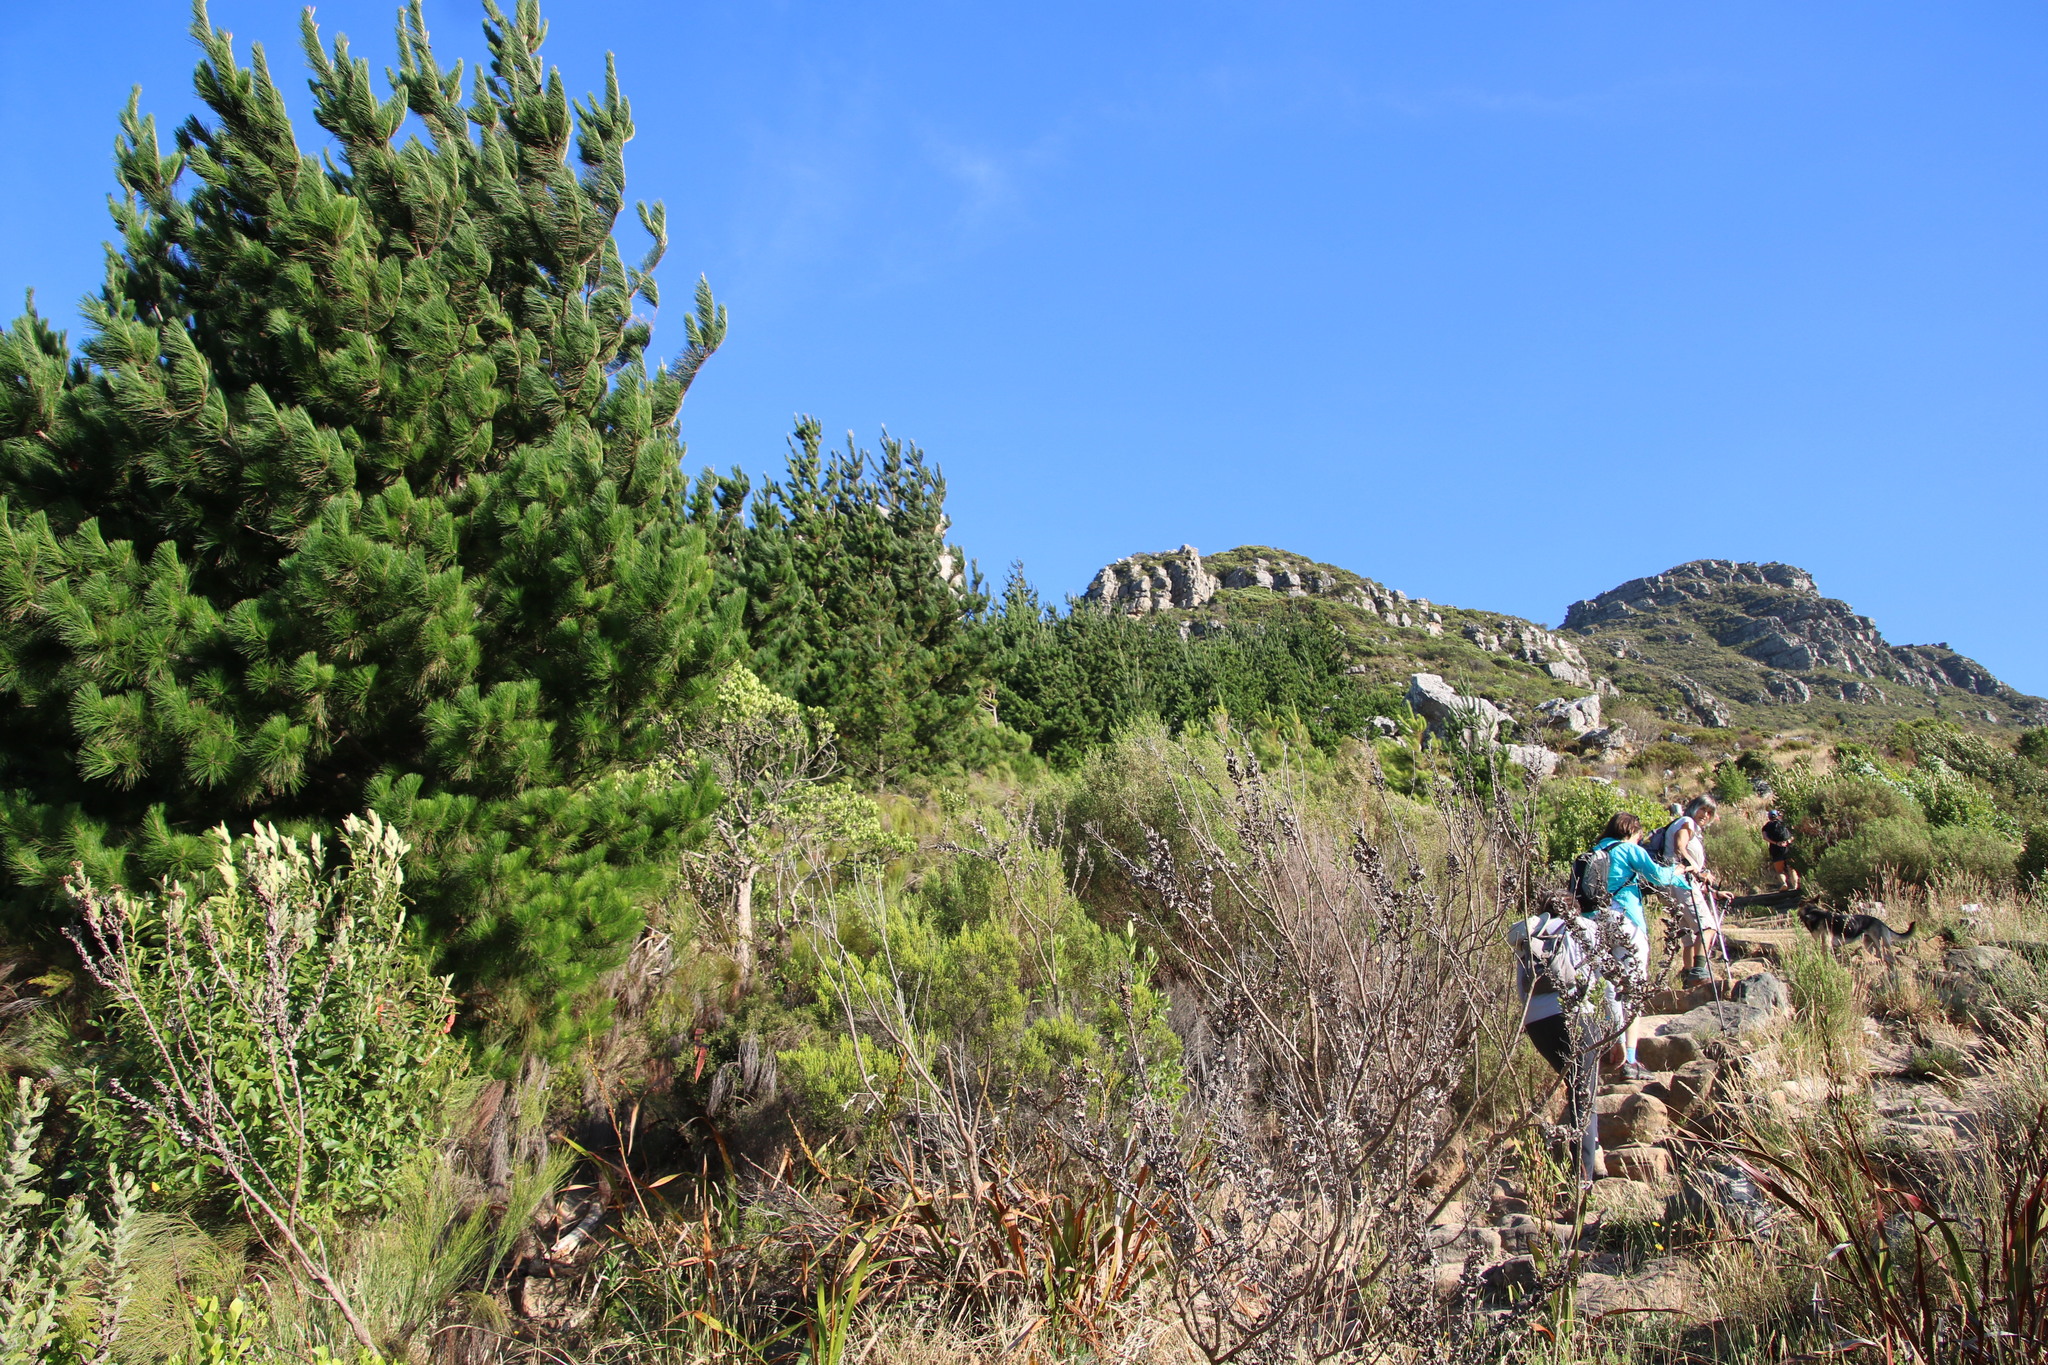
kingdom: Plantae
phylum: Tracheophyta
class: Pinopsida
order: Pinales
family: Pinaceae
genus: Pinus
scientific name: Pinus radiata
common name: Monterey pine
